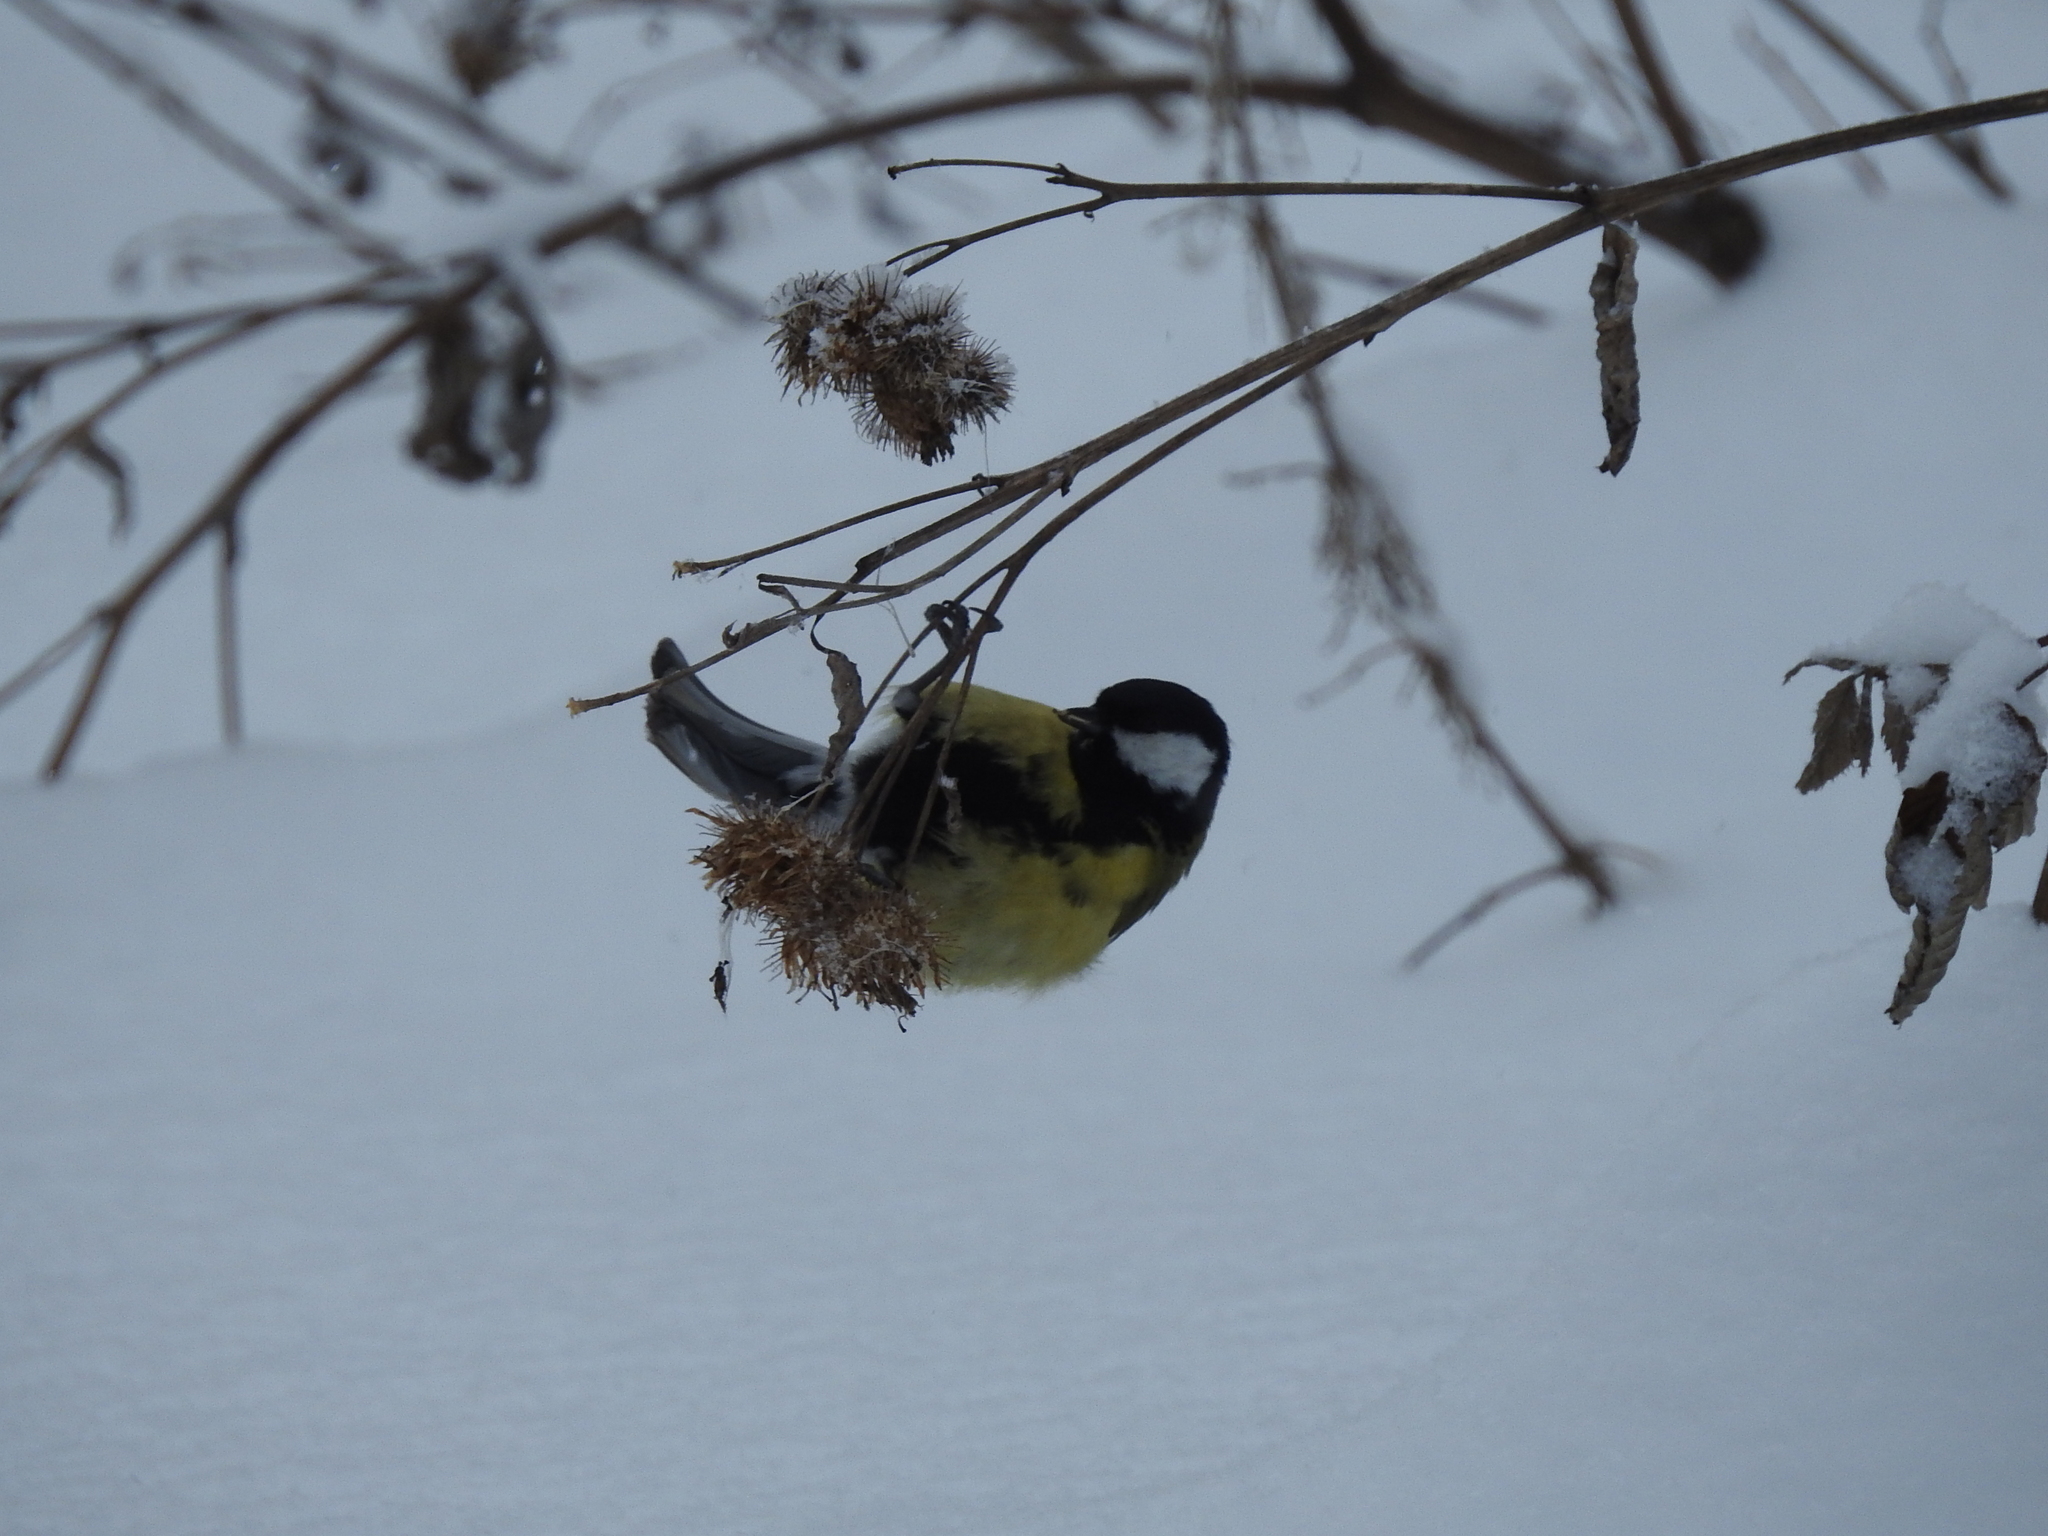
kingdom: Animalia
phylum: Chordata
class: Aves
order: Passeriformes
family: Paridae
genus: Parus
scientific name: Parus major
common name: Great tit
